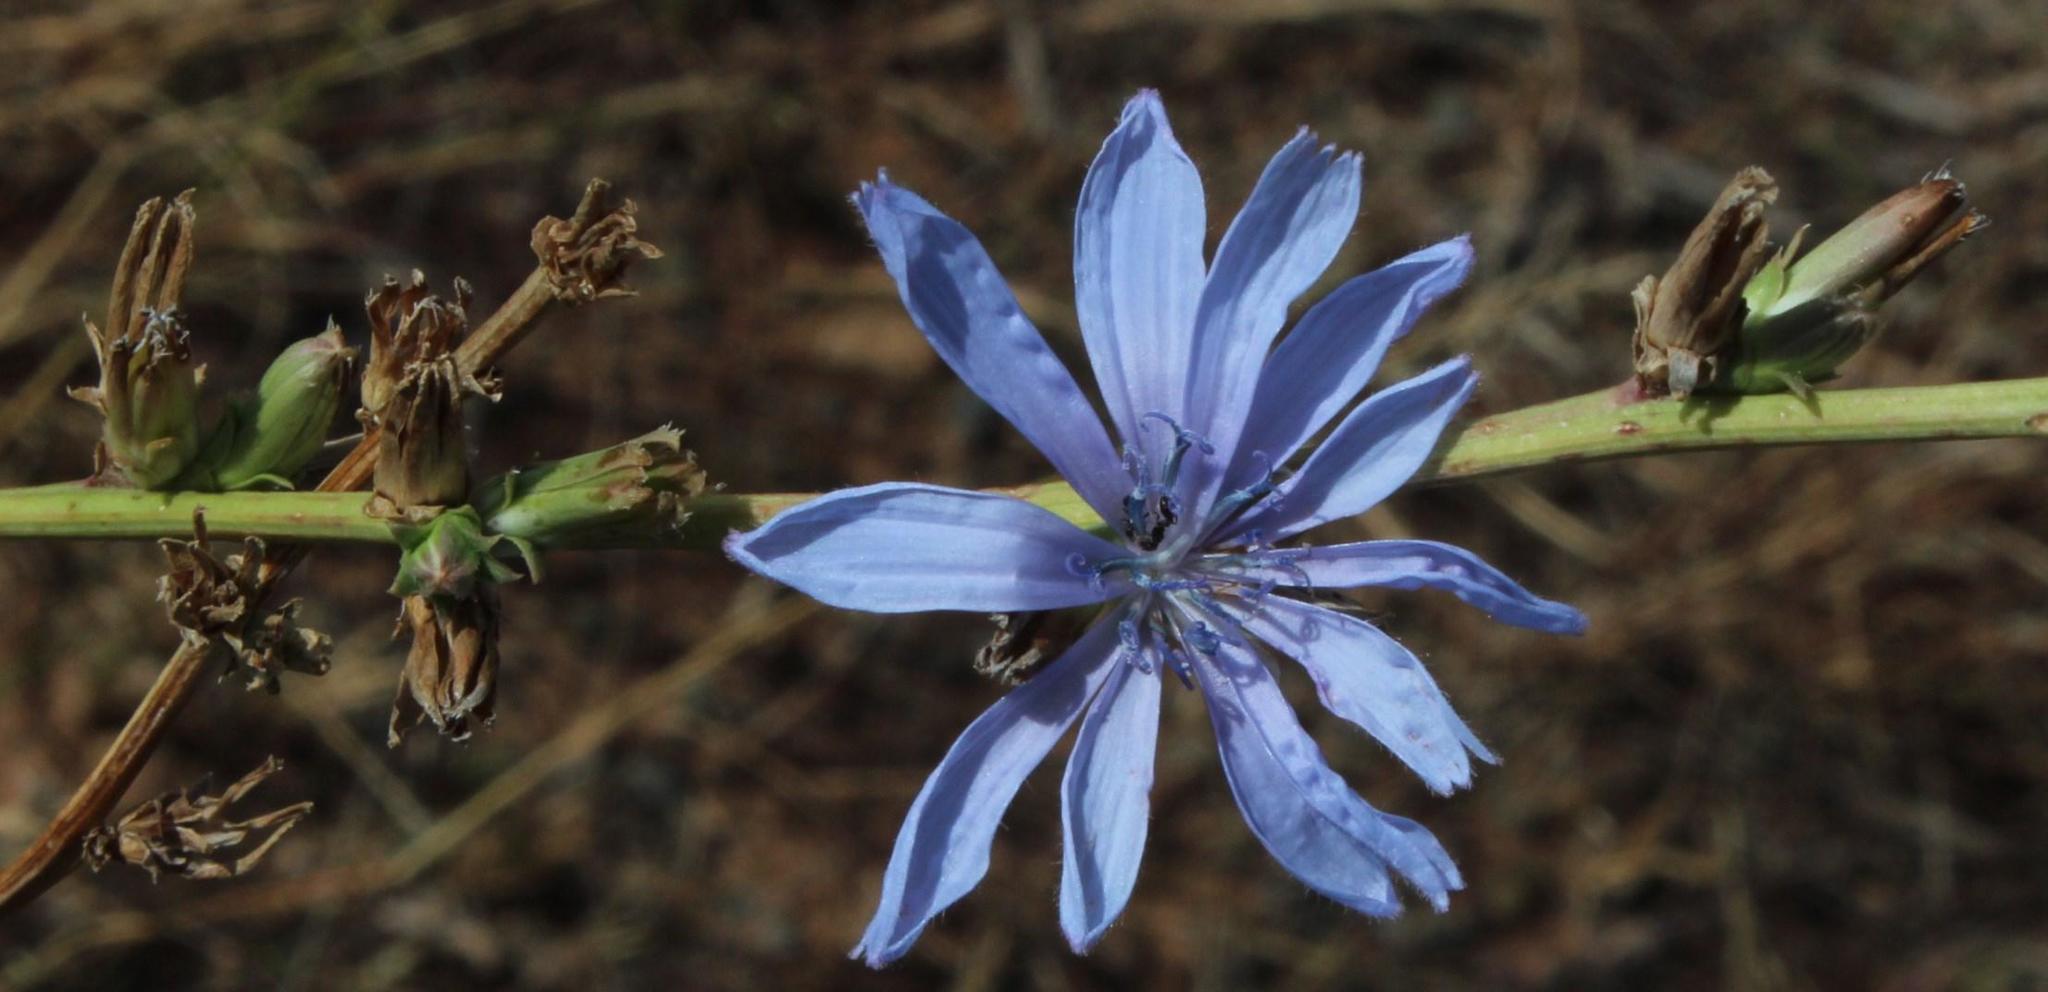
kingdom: Plantae
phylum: Tracheophyta
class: Magnoliopsida
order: Asterales
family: Asteraceae
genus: Cichorium
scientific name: Cichorium intybus
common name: Chicory
